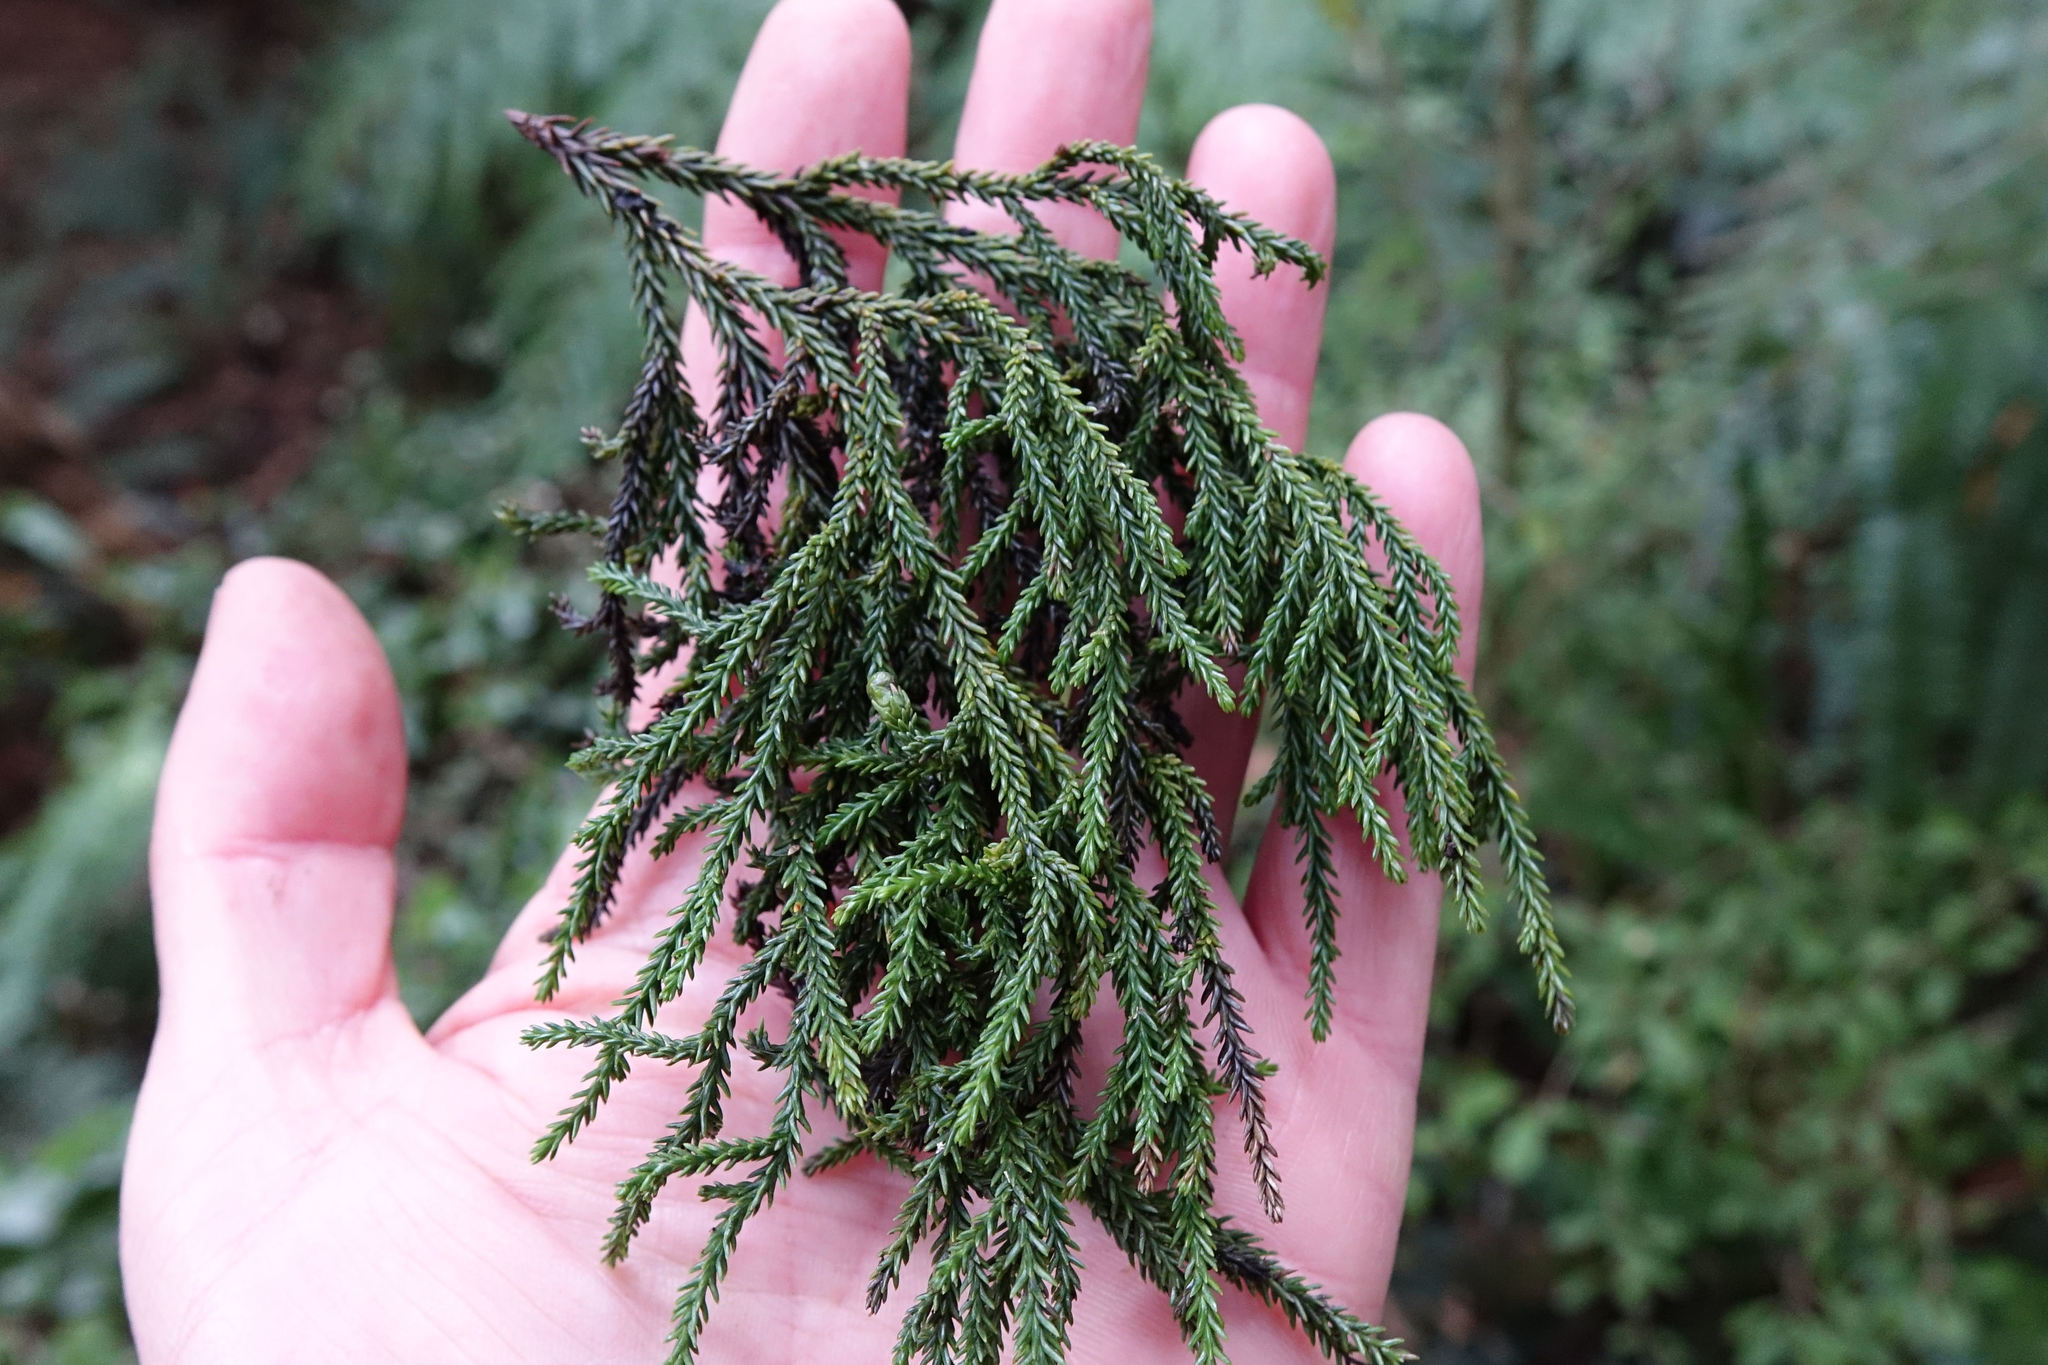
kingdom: Plantae
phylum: Tracheophyta
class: Pinopsida
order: Pinales
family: Podocarpaceae
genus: Dacrydium
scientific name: Dacrydium cupressinum
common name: Red pine
